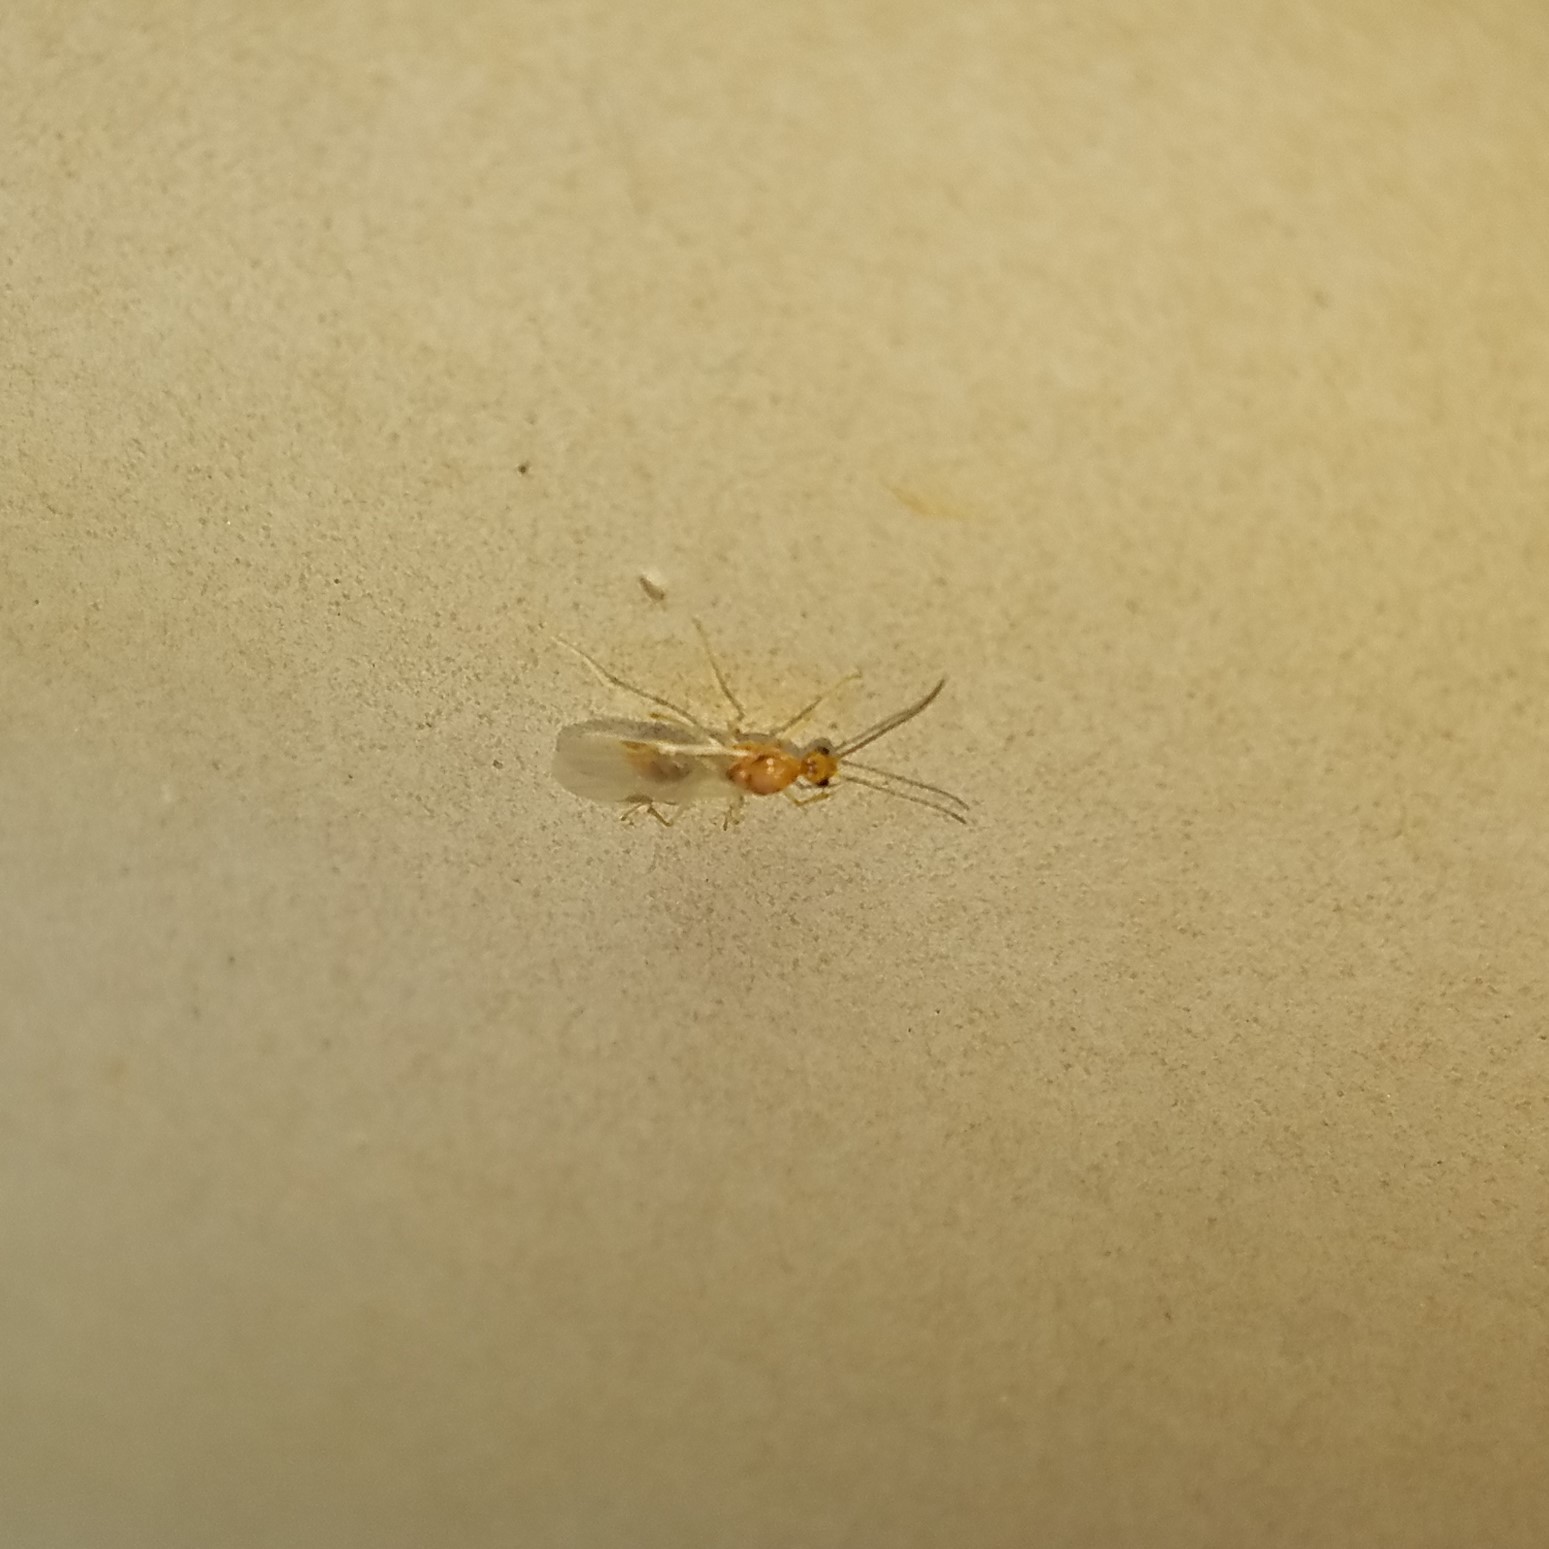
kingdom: Animalia
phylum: Arthropoda
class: Insecta
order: Hymenoptera
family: Formicidae
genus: Pachycondyla
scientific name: Pachycondyla chinensis
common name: Asian needle ant
